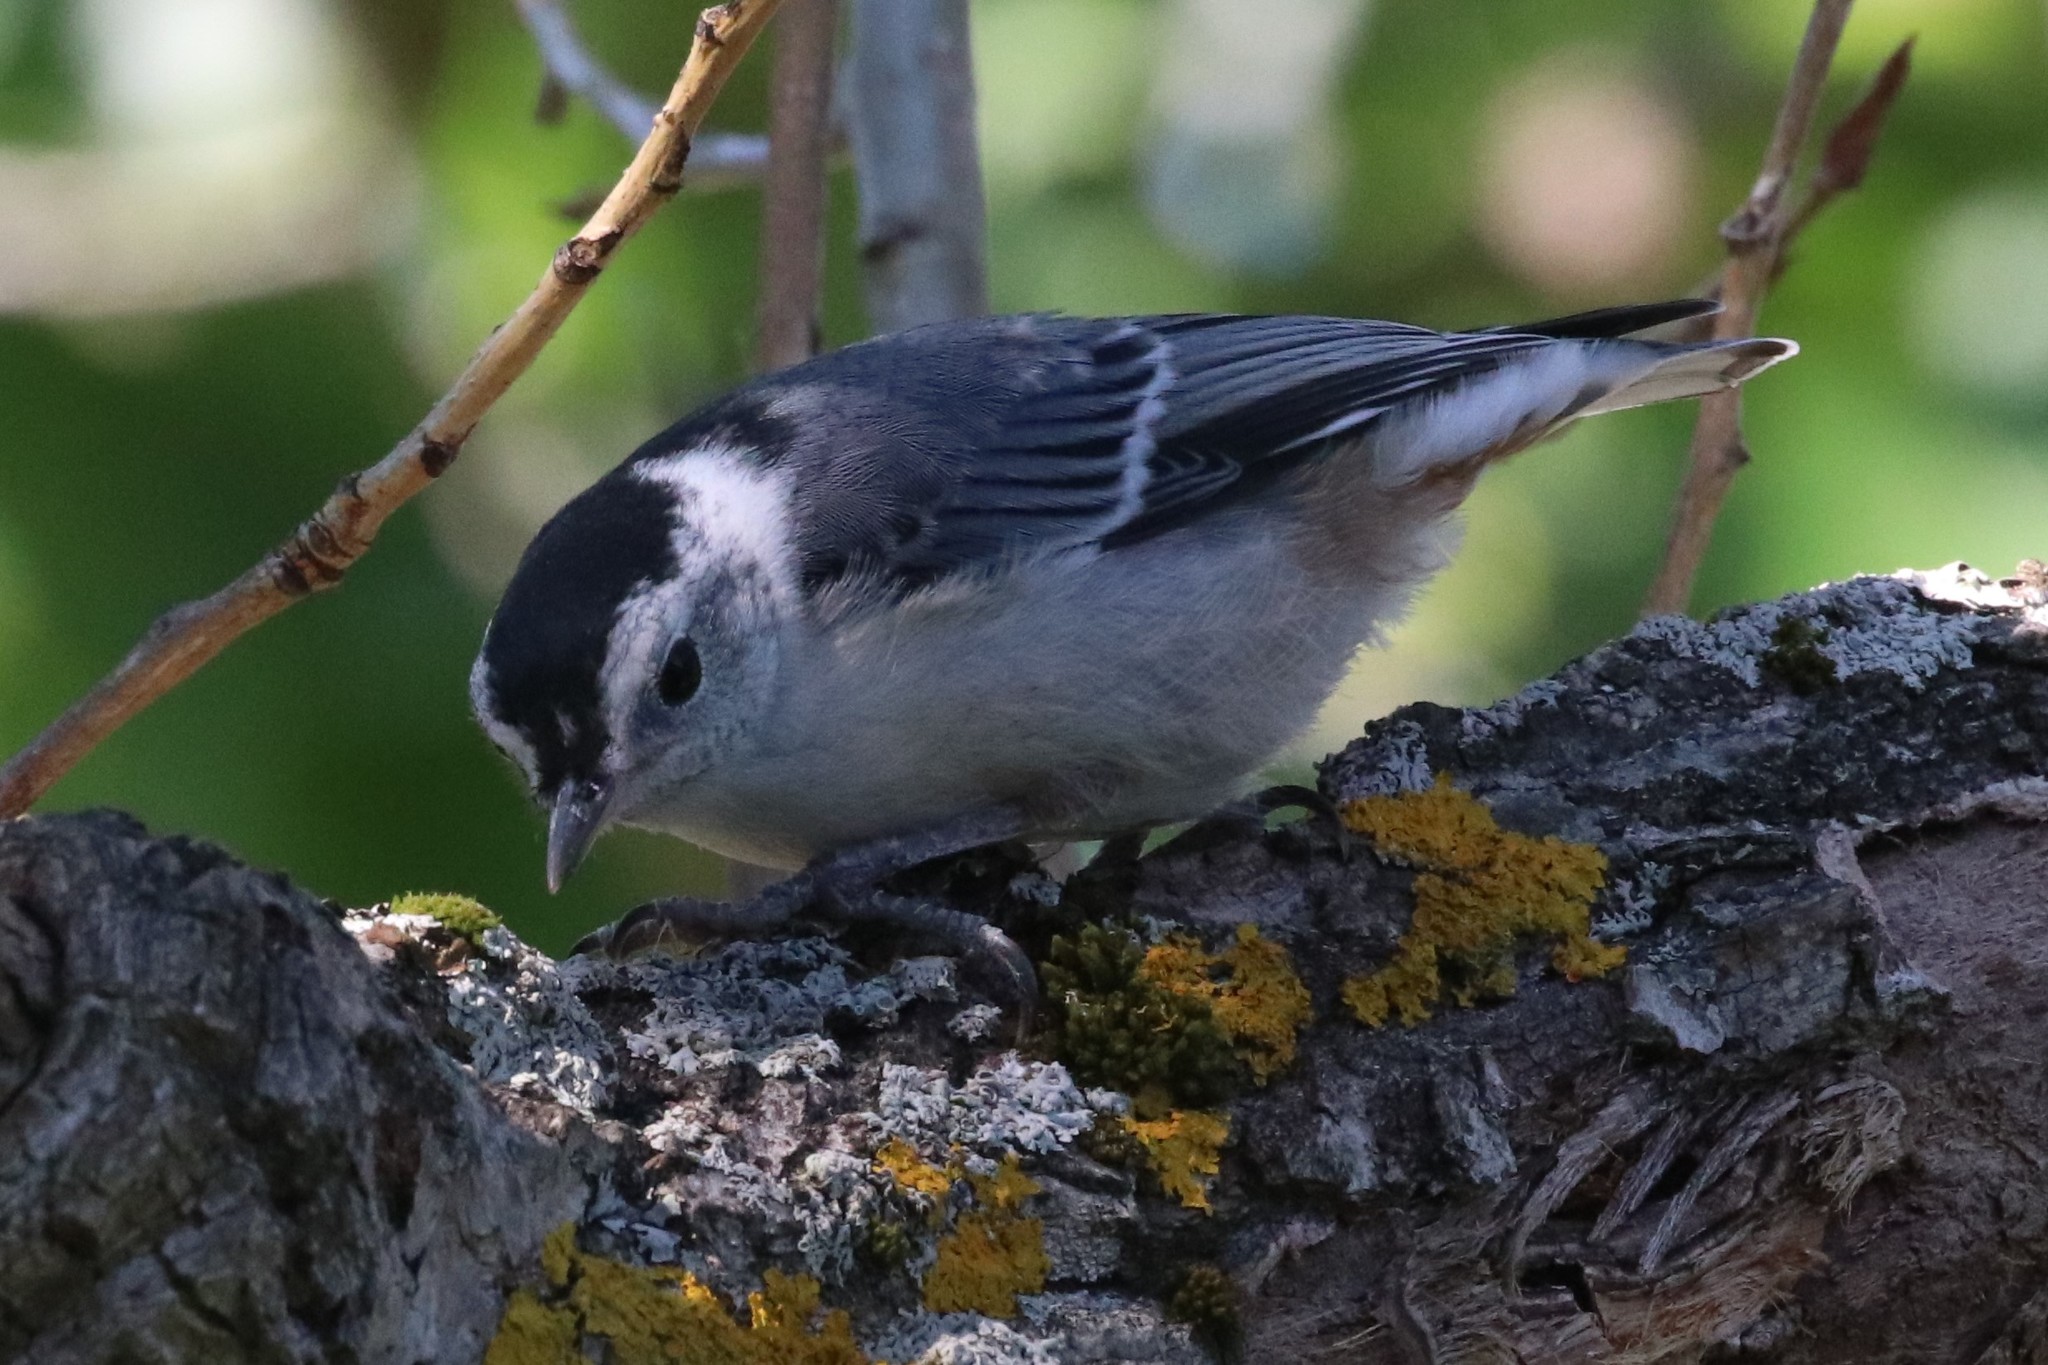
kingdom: Animalia
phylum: Chordata
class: Aves
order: Passeriformes
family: Sittidae
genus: Sitta
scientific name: Sitta carolinensis
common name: White-breasted nuthatch
